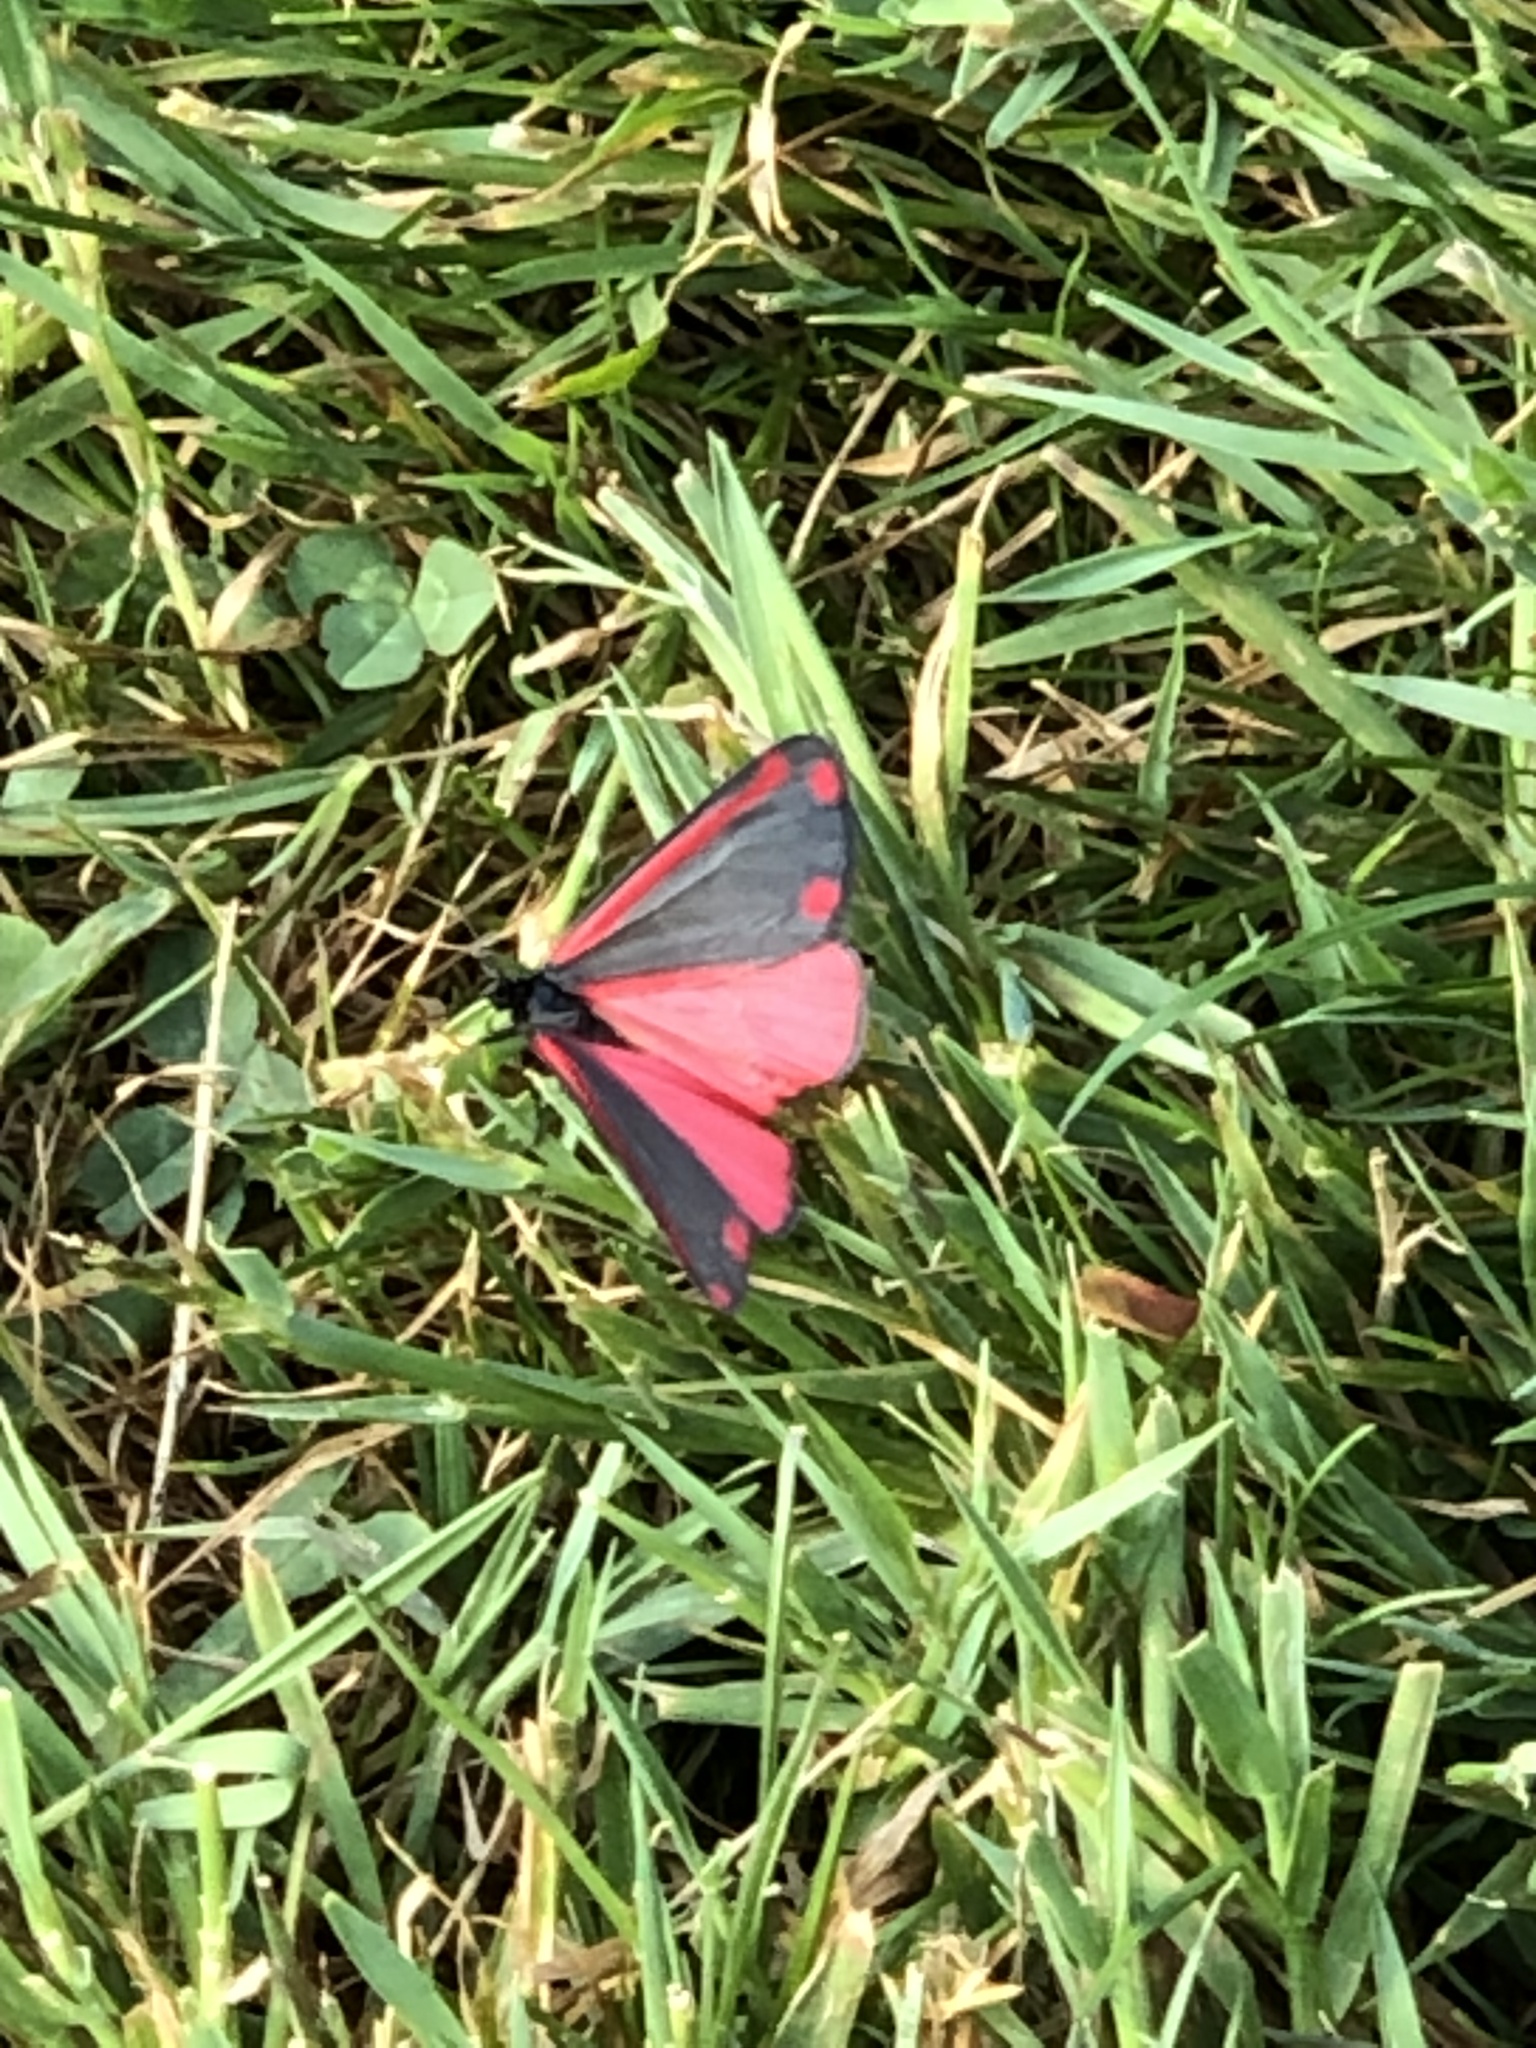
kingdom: Animalia
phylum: Arthropoda
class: Insecta
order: Lepidoptera
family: Erebidae
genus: Tyria
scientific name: Tyria jacobaeae
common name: Cinnabar
